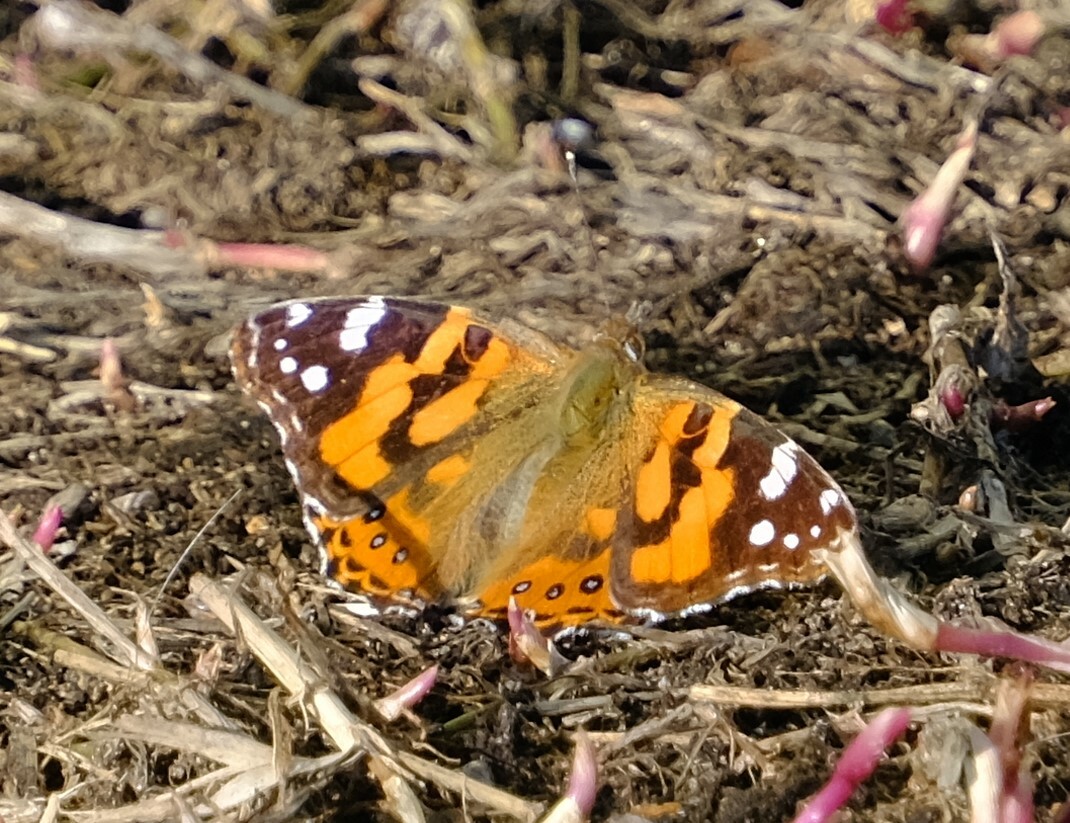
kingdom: Animalia
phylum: Arthropoda
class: Insecta
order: Lepidoptera
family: Nymphalidae
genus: Vanessa
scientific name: Vanessa kershawi
